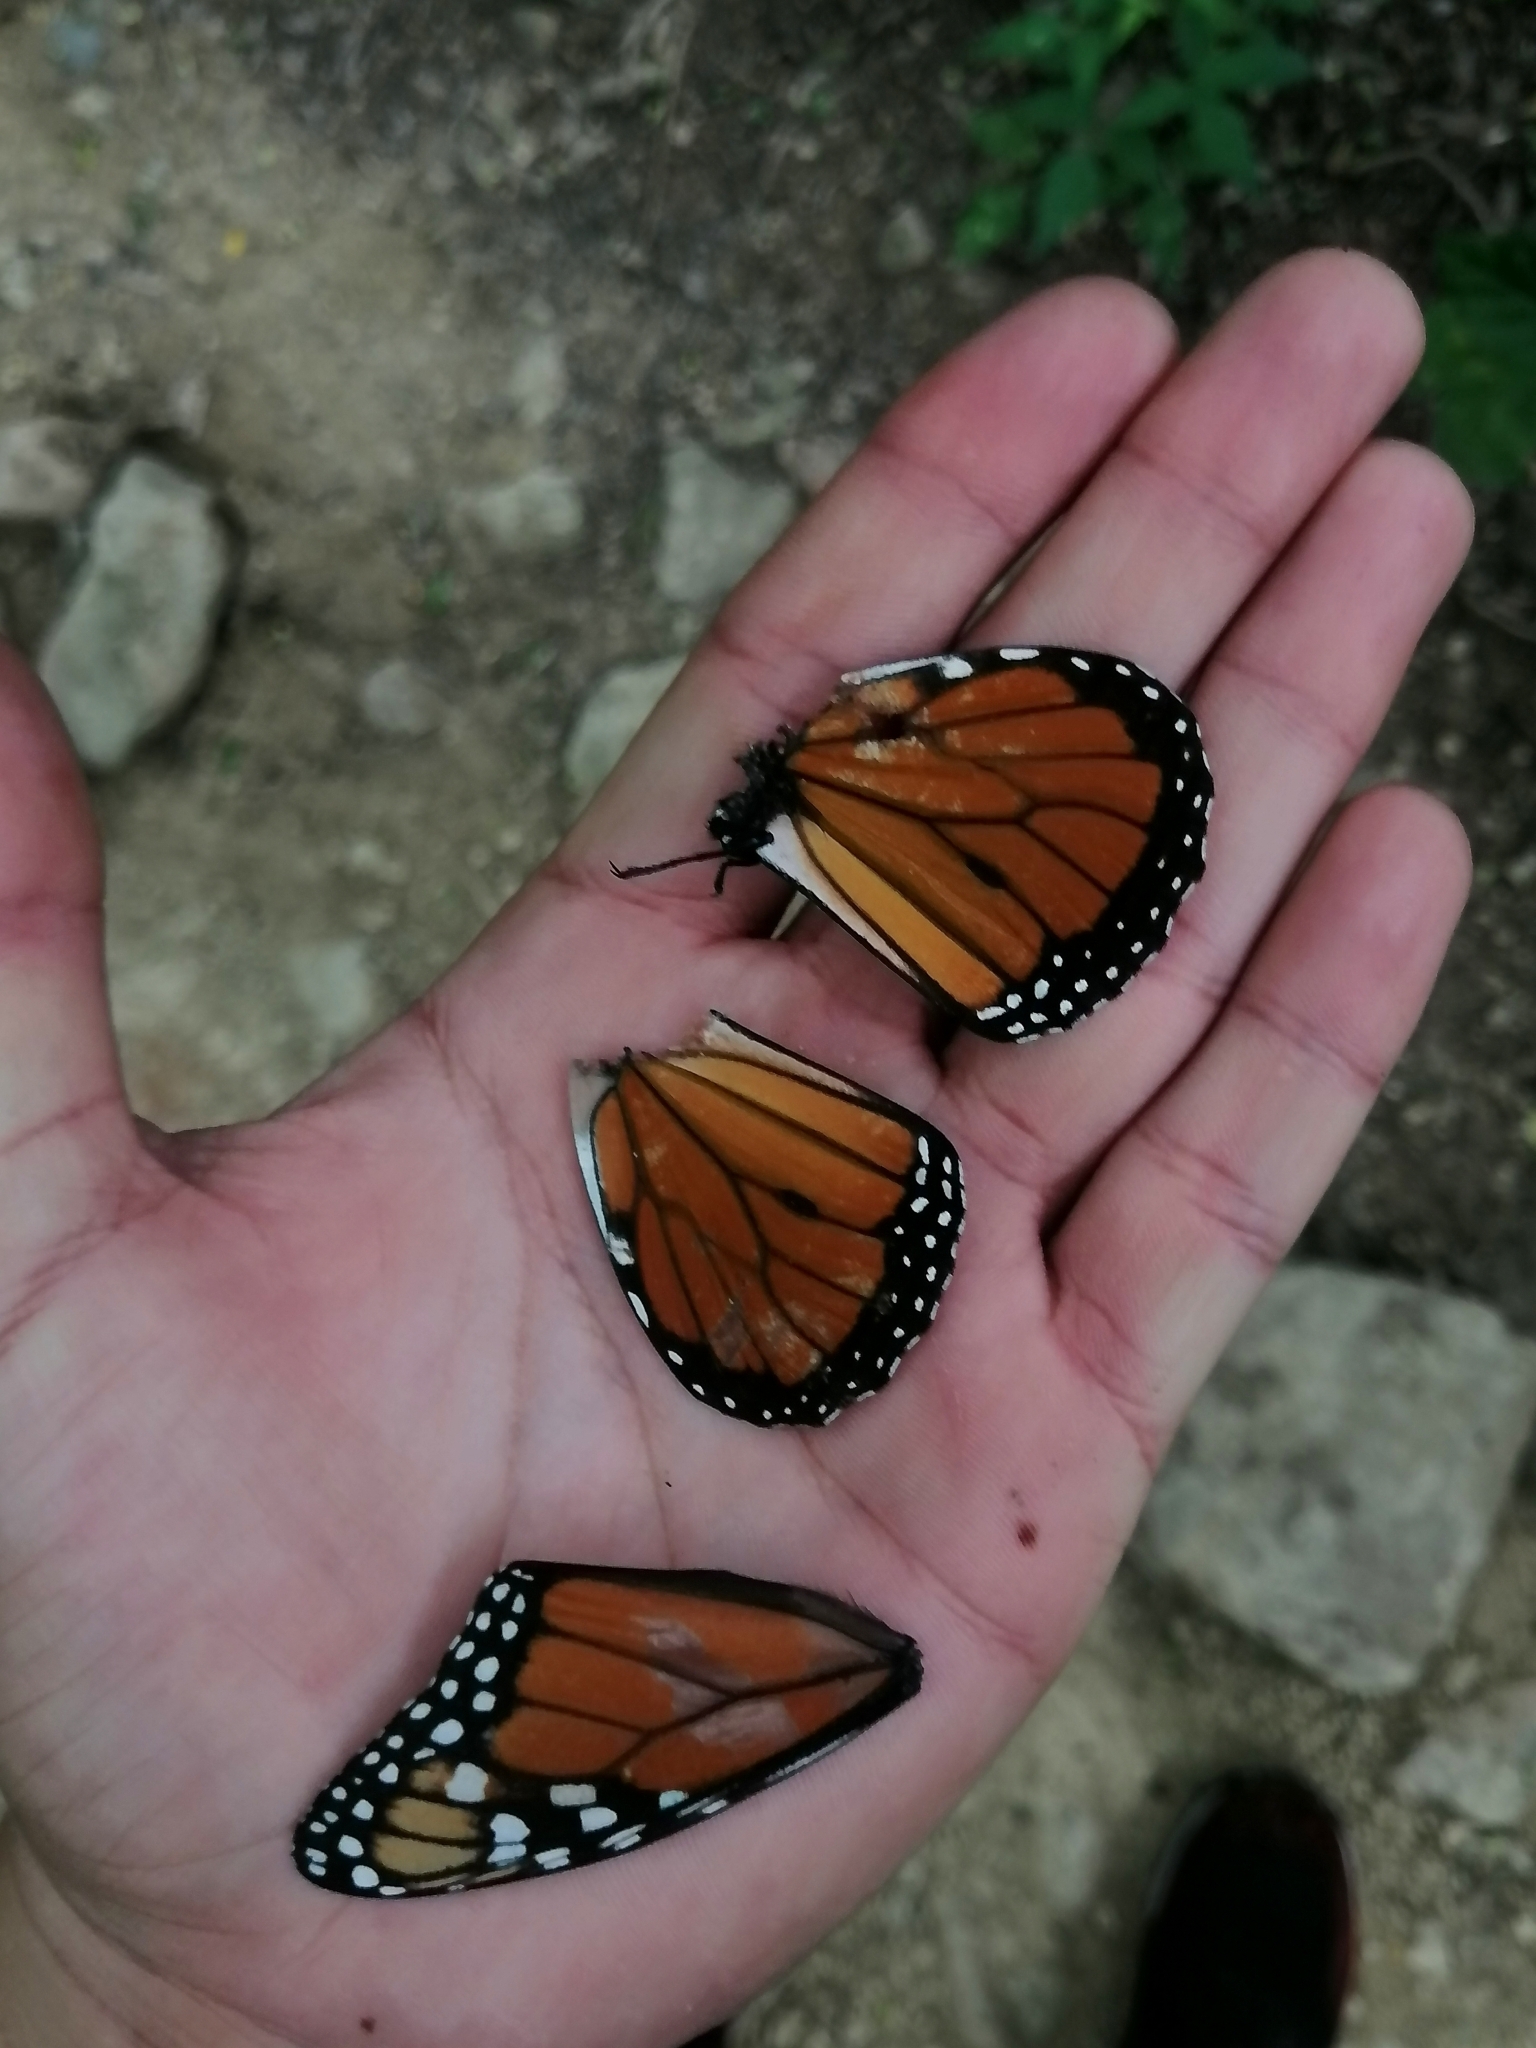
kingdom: Animalia
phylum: Arthropoda
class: Insecta
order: Lepidoptera
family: Nymphalidae
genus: Danaus
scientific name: Danaus plexippus
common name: Monarch
